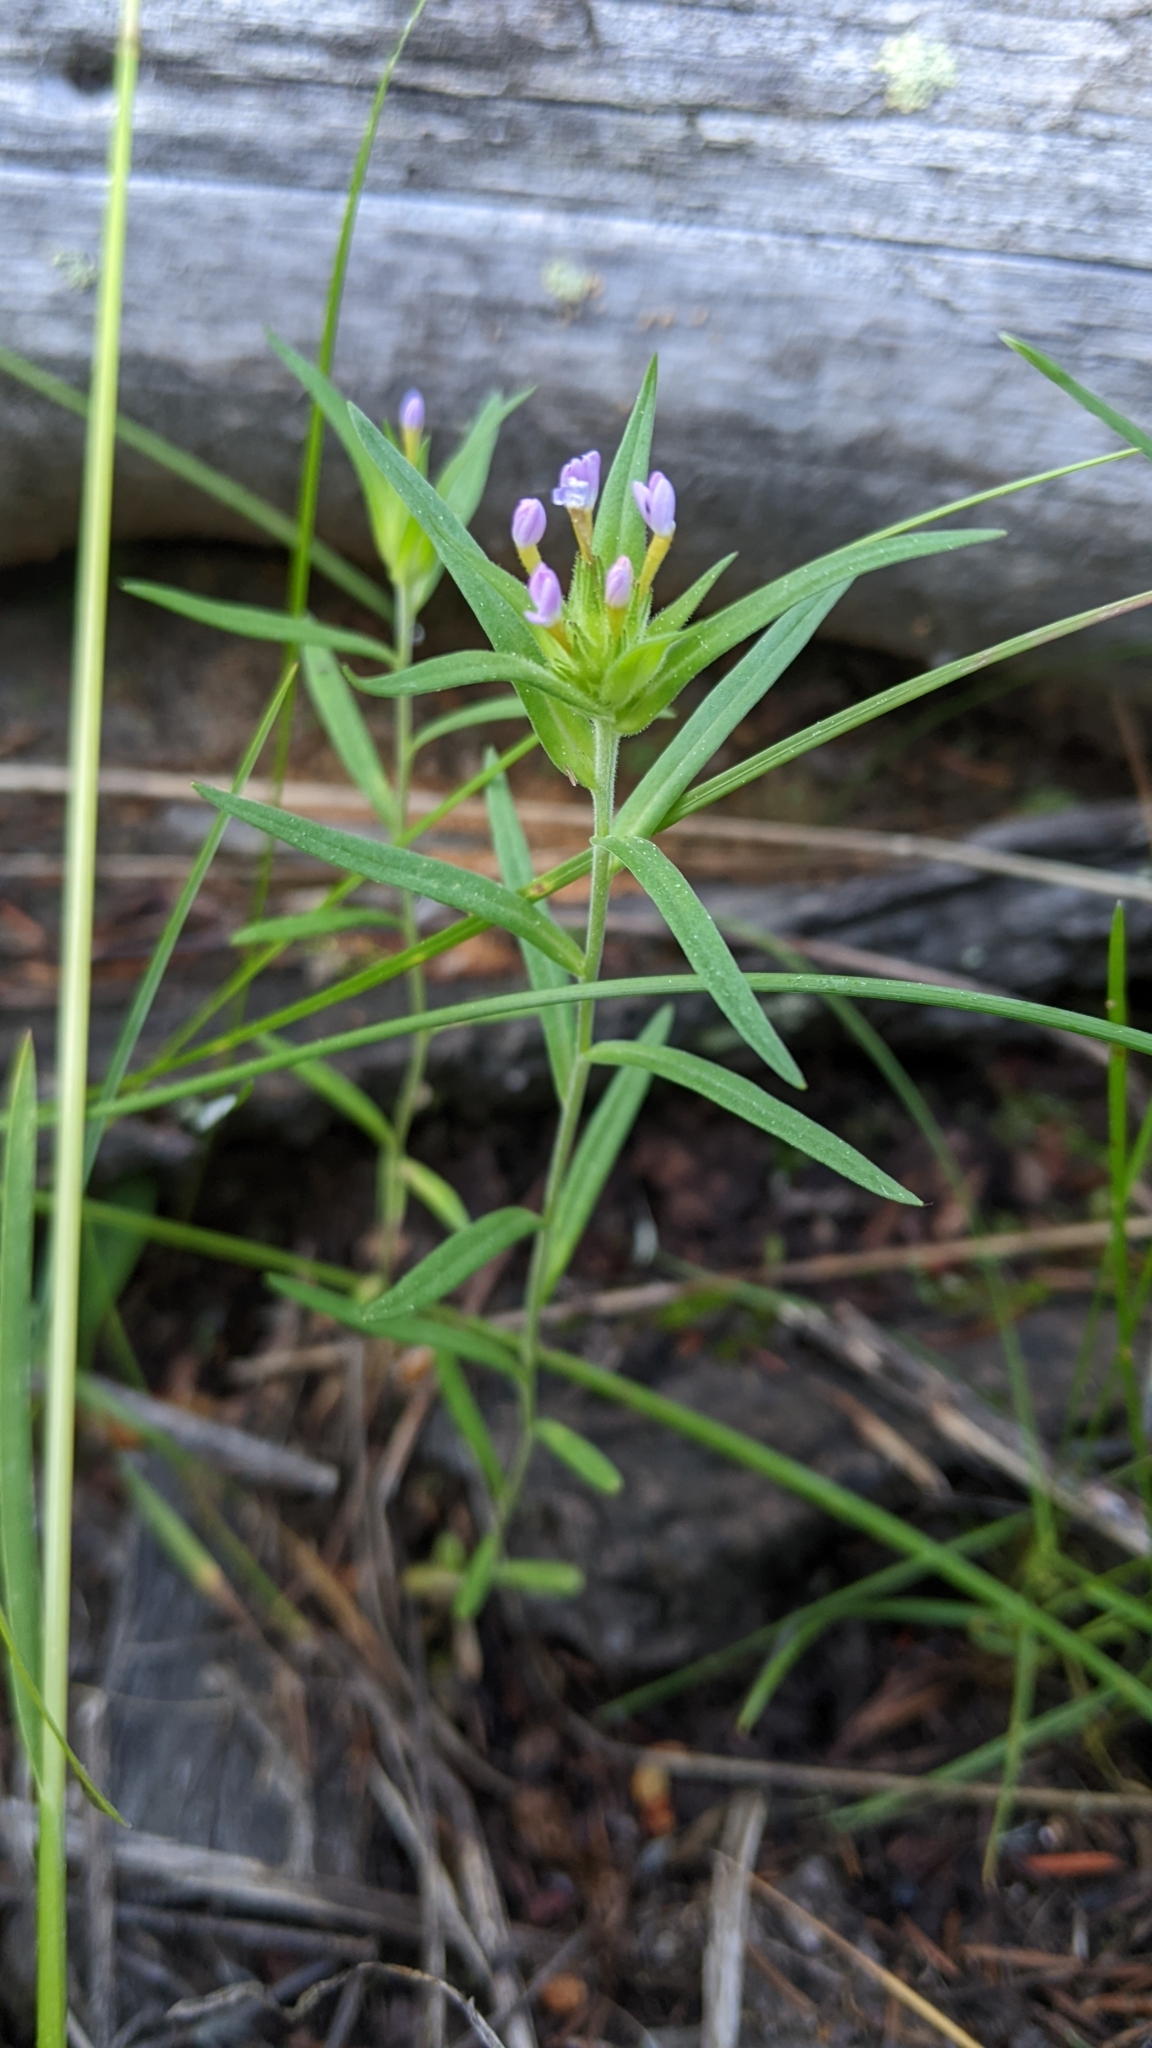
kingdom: Plantae
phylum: Tracheophyta
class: Magnoliopsida
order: Ericales
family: Polemoniaceae
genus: Collomia
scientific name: Collomia linearis
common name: Tiny trumpet
